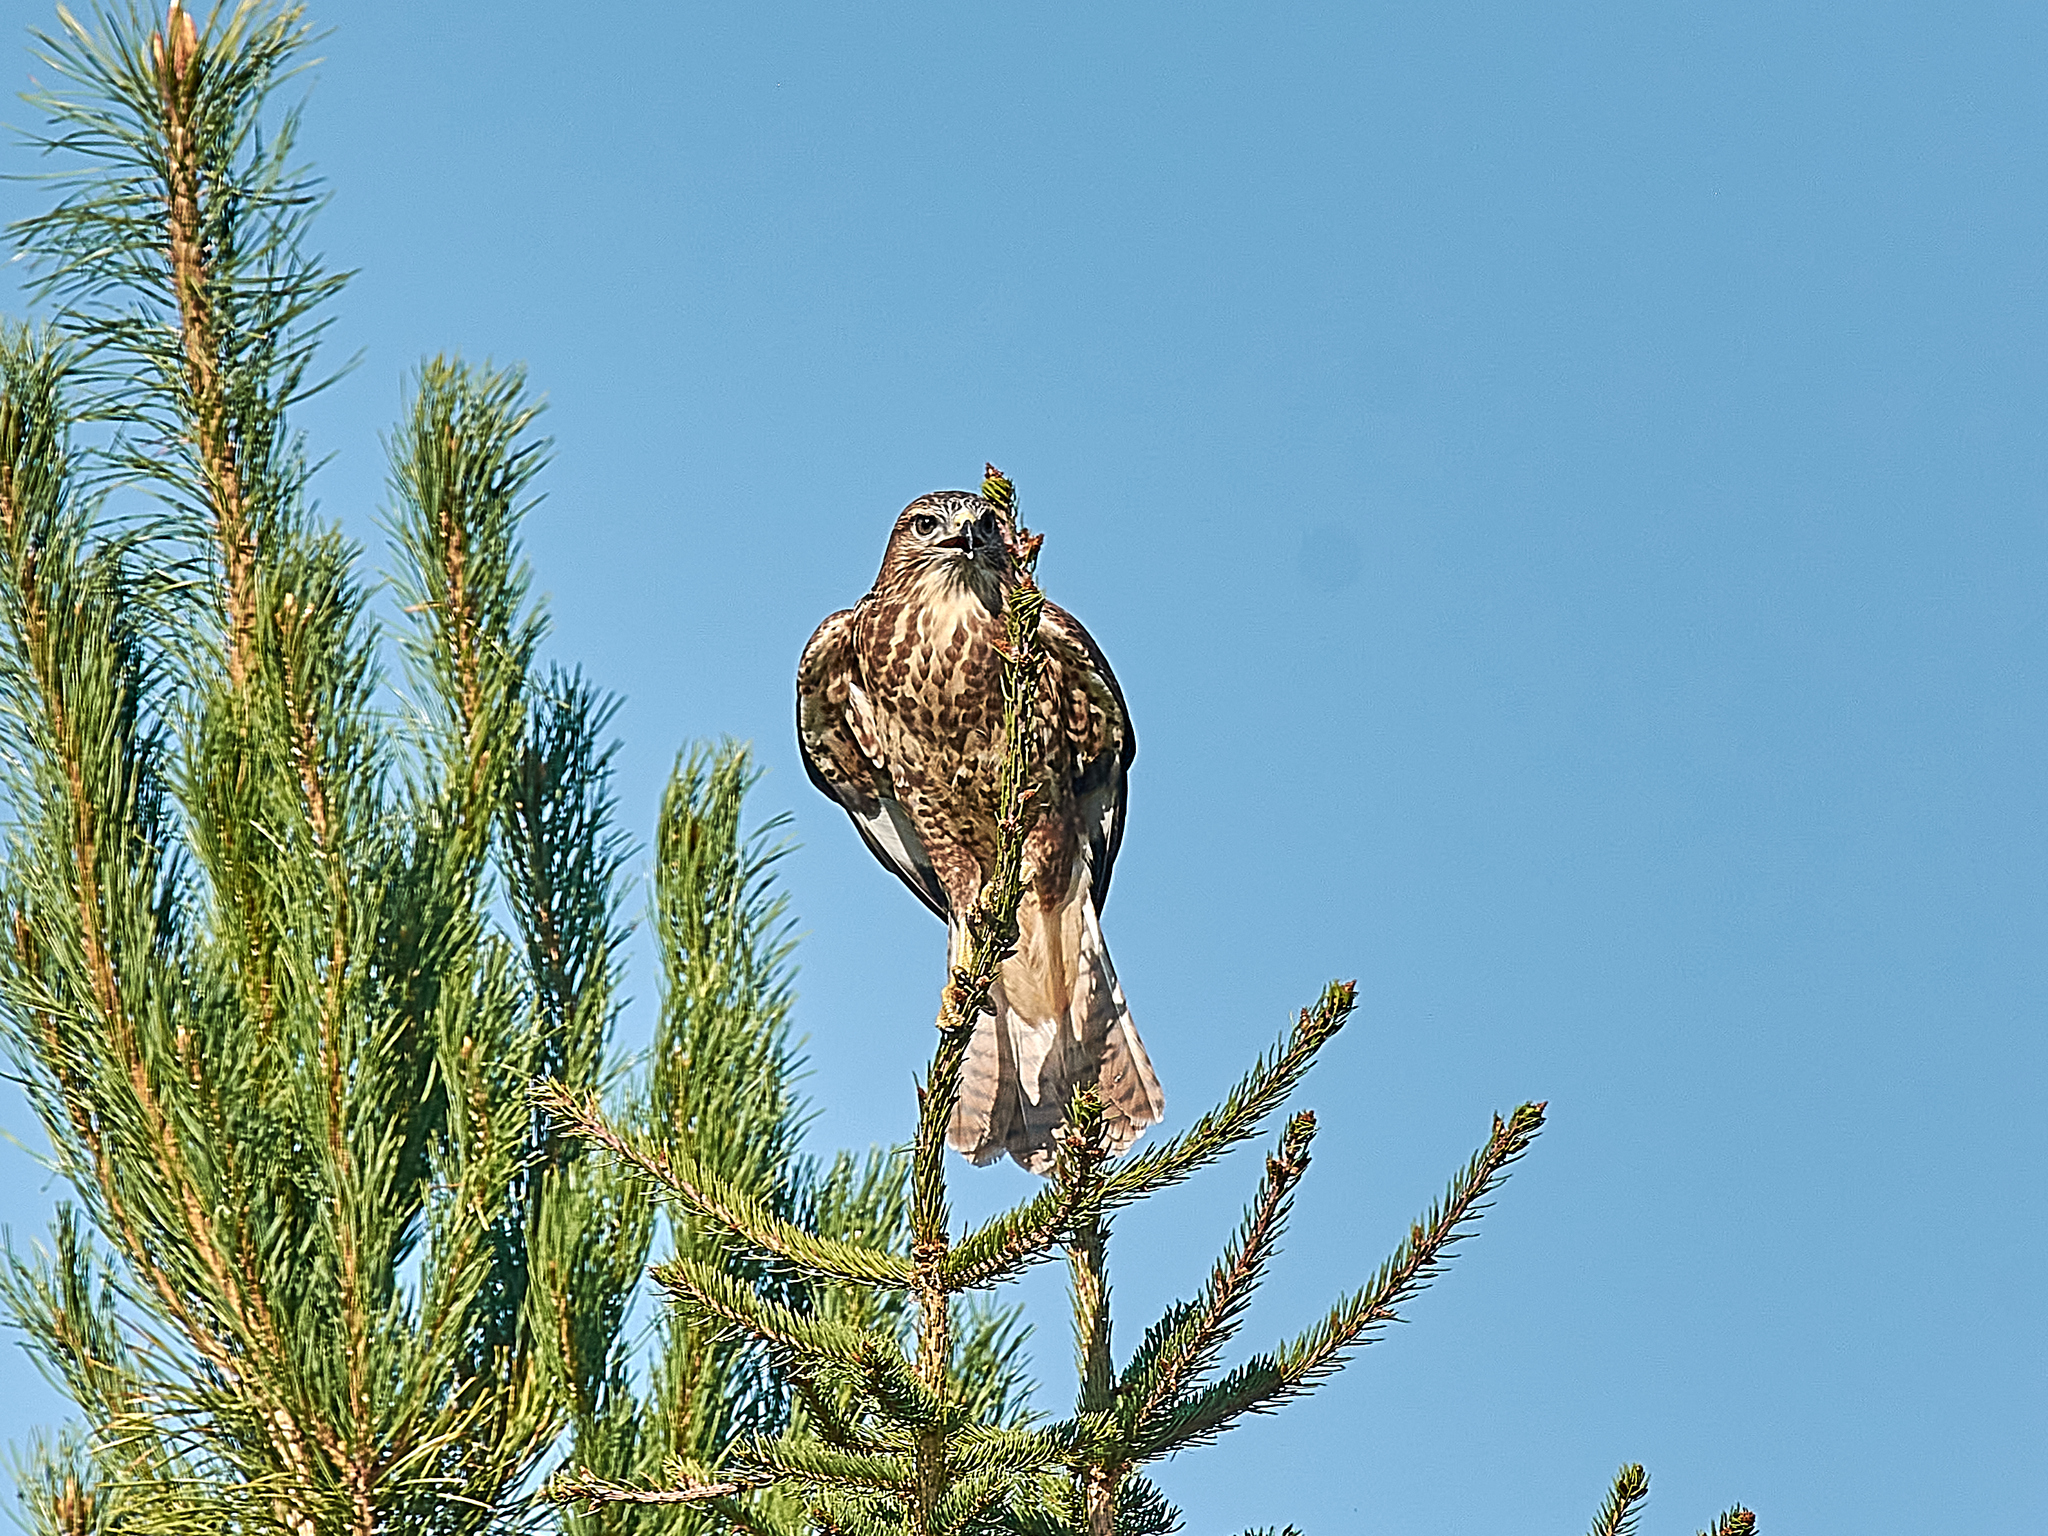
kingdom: Animalia
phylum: Chordata
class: Aves
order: Accipitriformes
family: Accipitridae
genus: Buteo
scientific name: Buteo buteo
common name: Common buzzard
